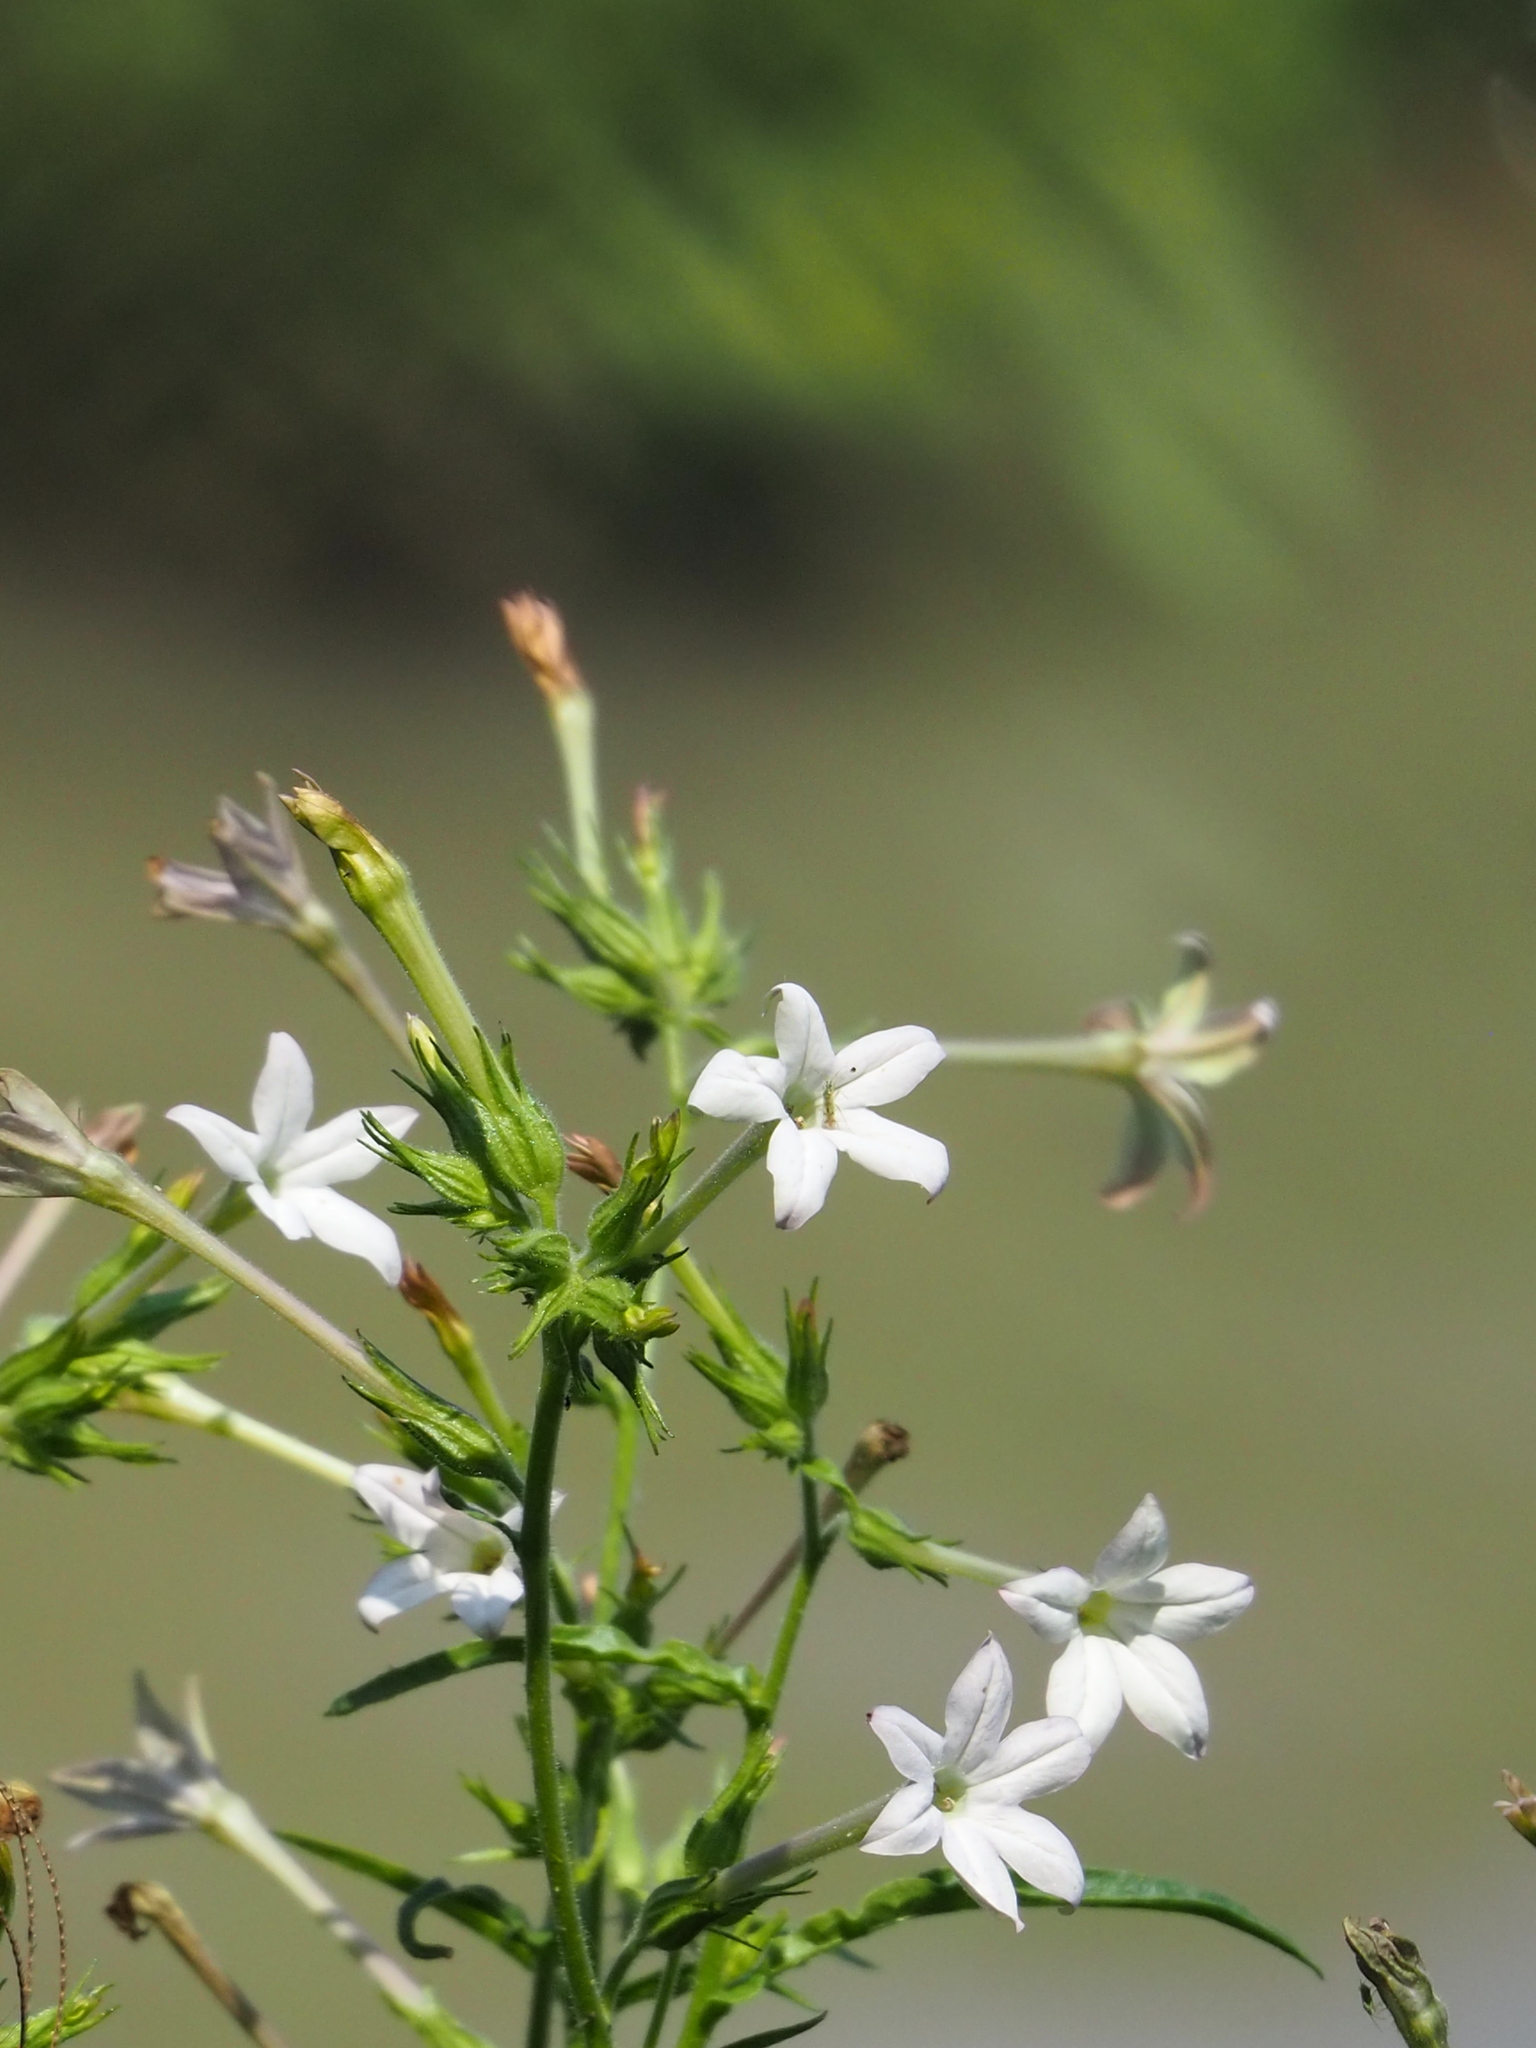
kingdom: Plantae
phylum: Tracheophyta
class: Magnoliopsida
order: Solanales
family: Solanaceae
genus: Nicotiana
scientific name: Nicotiana plumbaginifolia
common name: Tex-mex tobacco
